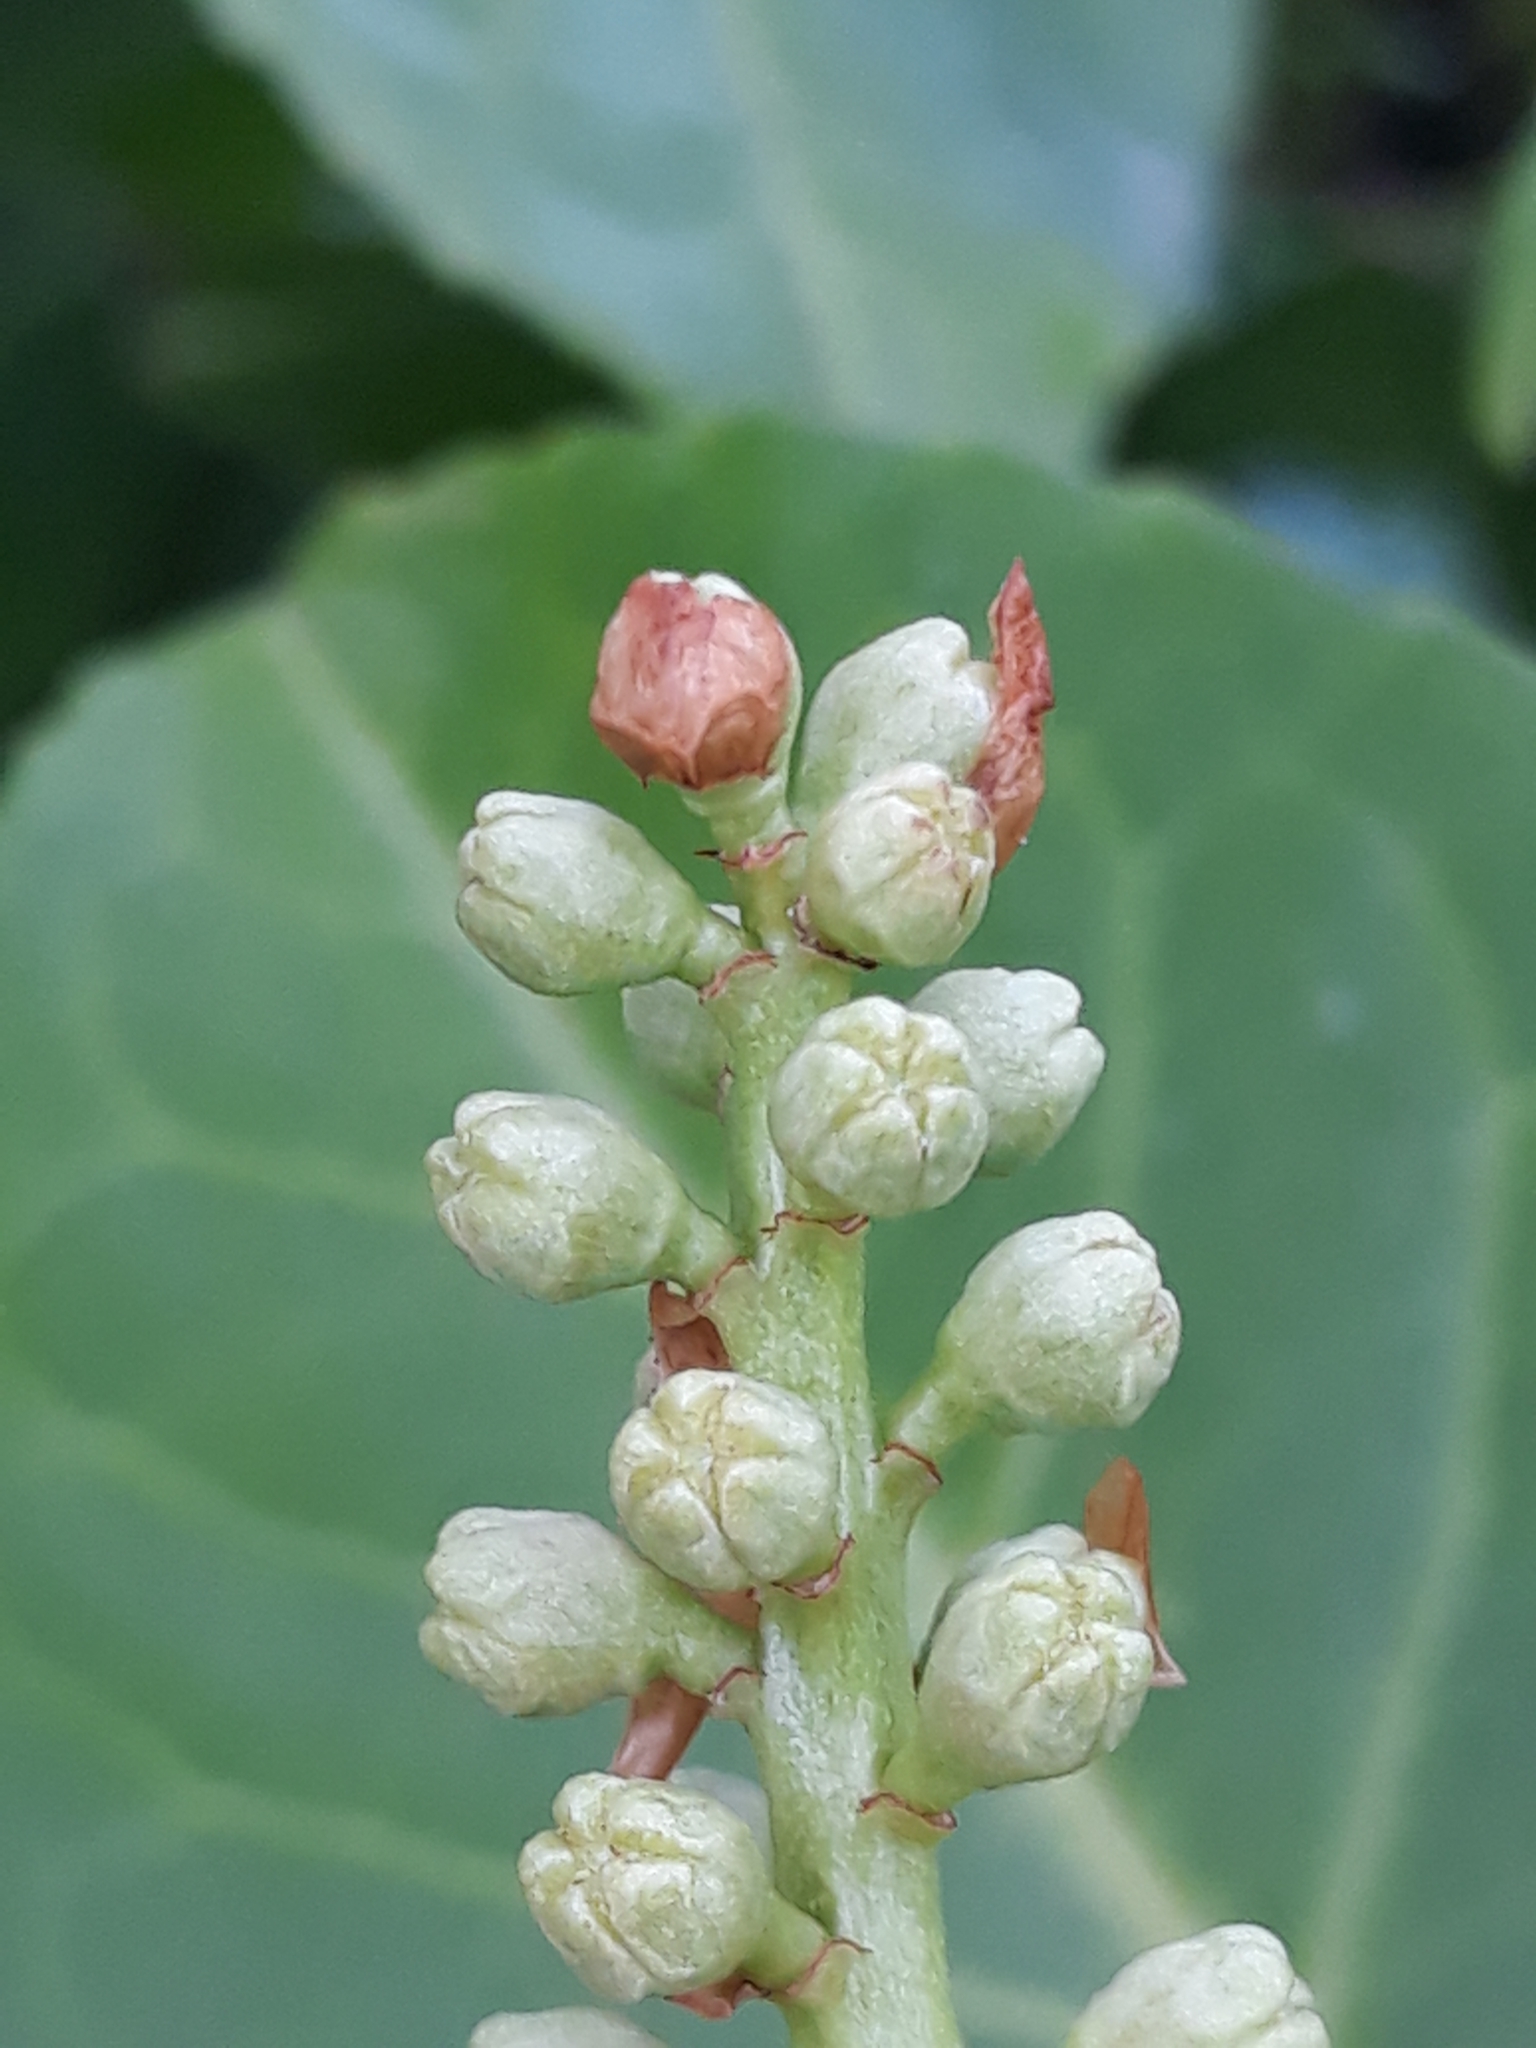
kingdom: Plantae
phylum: Tracheophyta
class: Magnoliopsida
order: Rosales
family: Rosaceae
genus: Prunus
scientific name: Prunus laurocerasus
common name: Cherry laurel
